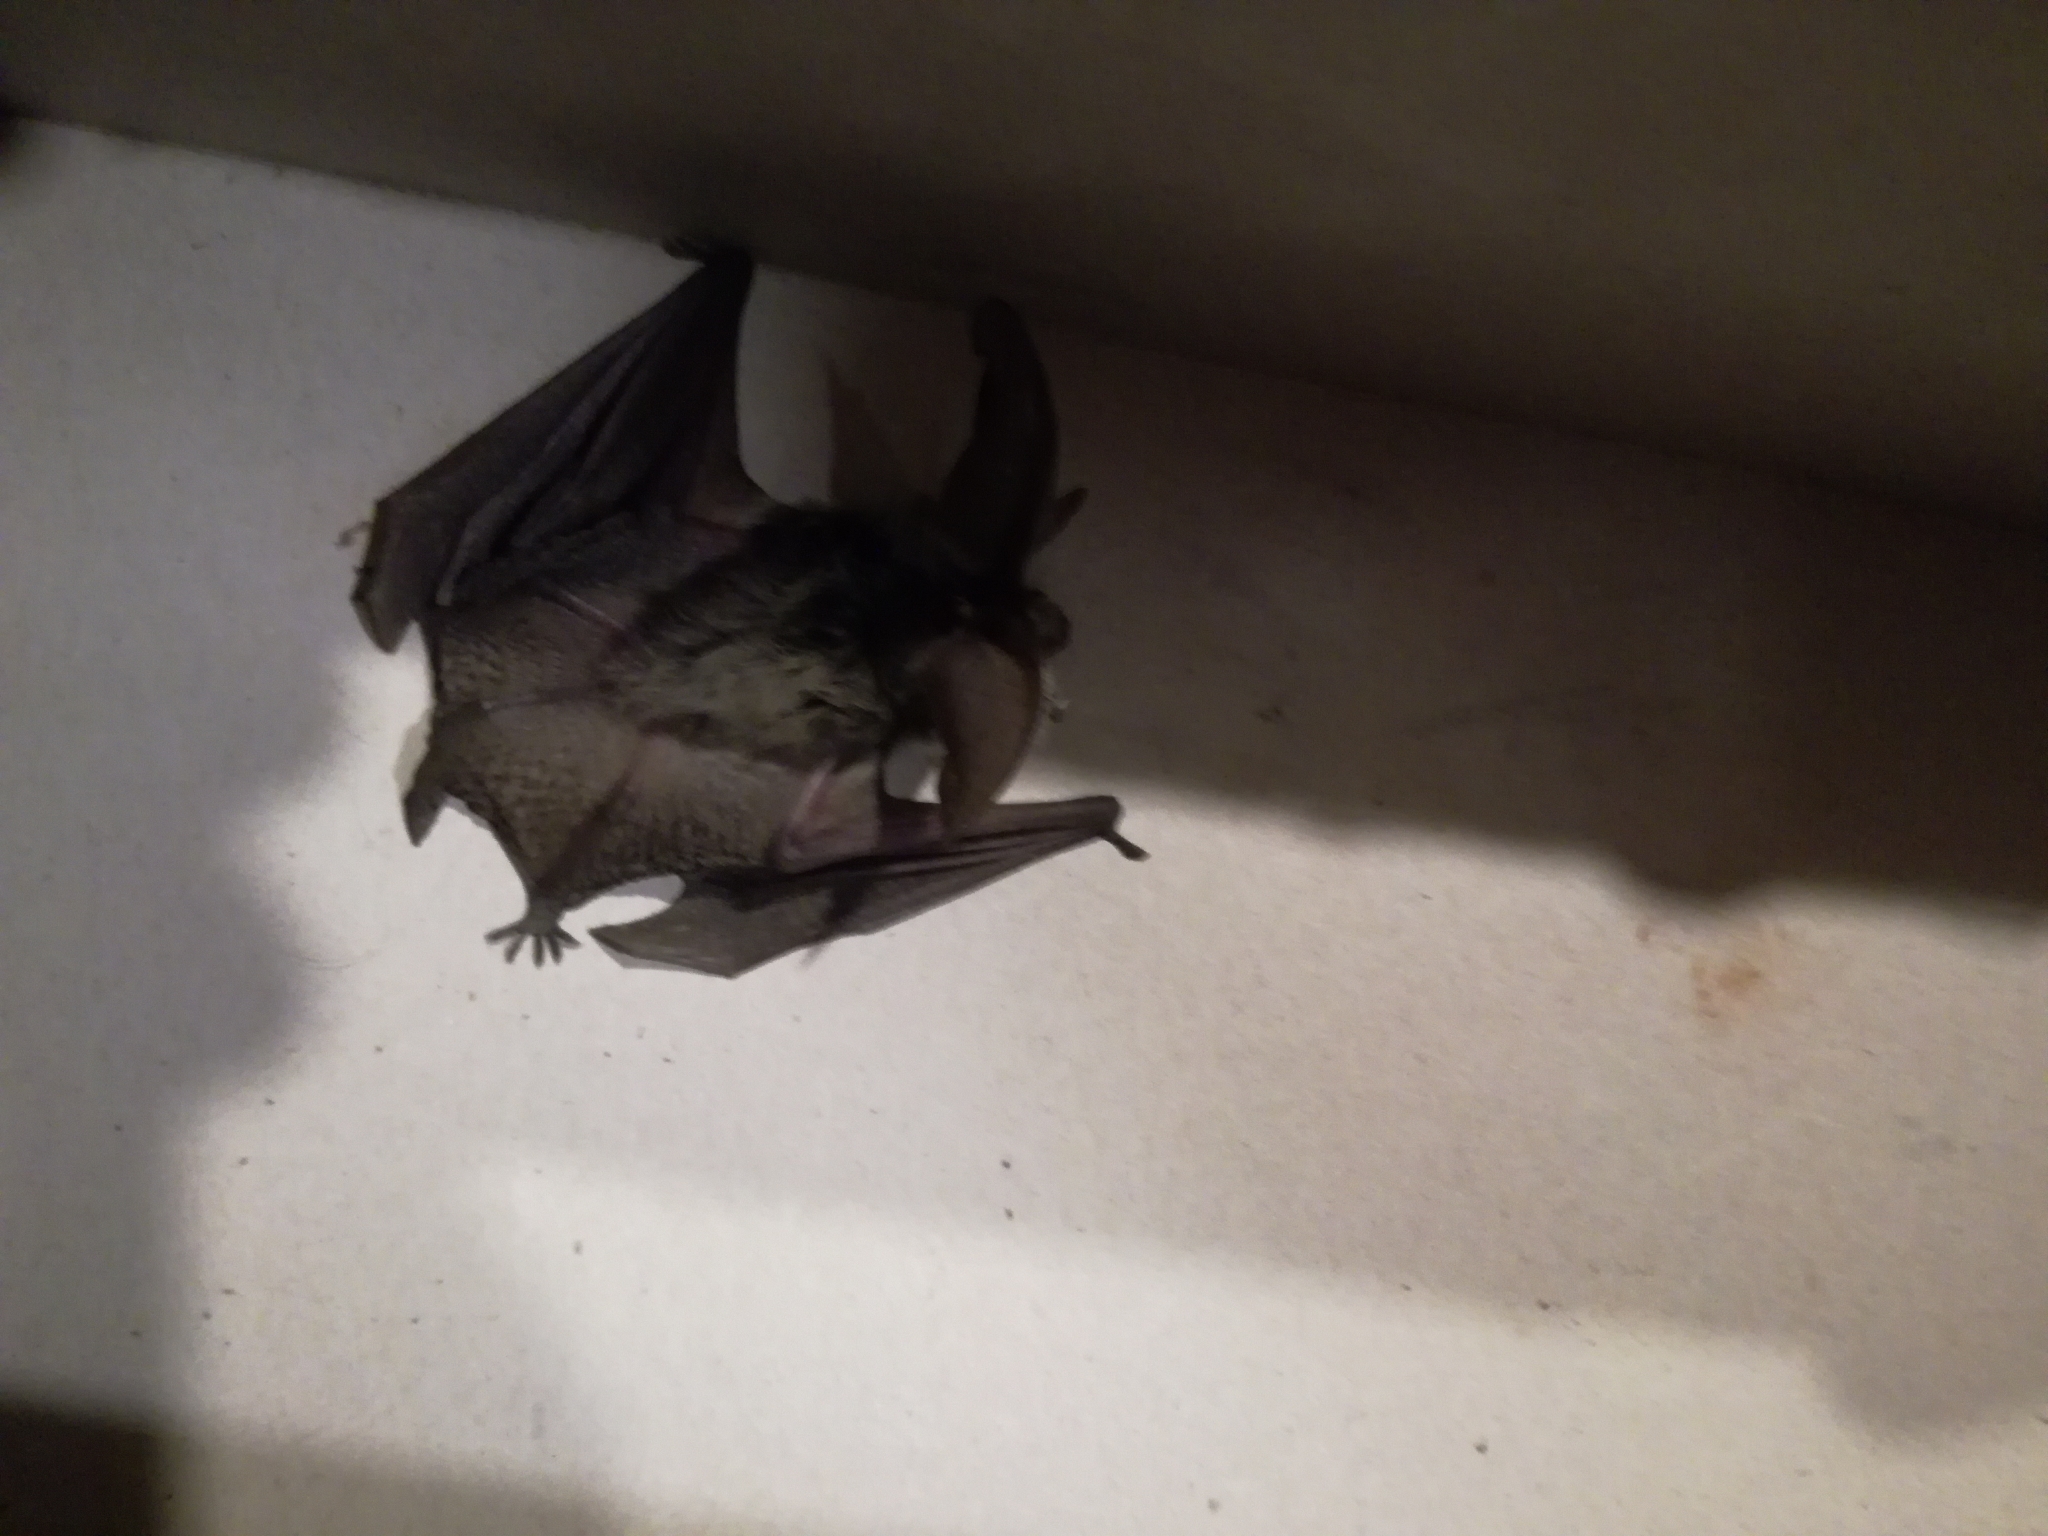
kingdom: Animalia
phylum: Chordata
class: Mammalia
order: Chiroptera
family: Vespertilionidae
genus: Plecotus
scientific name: Plecotus
